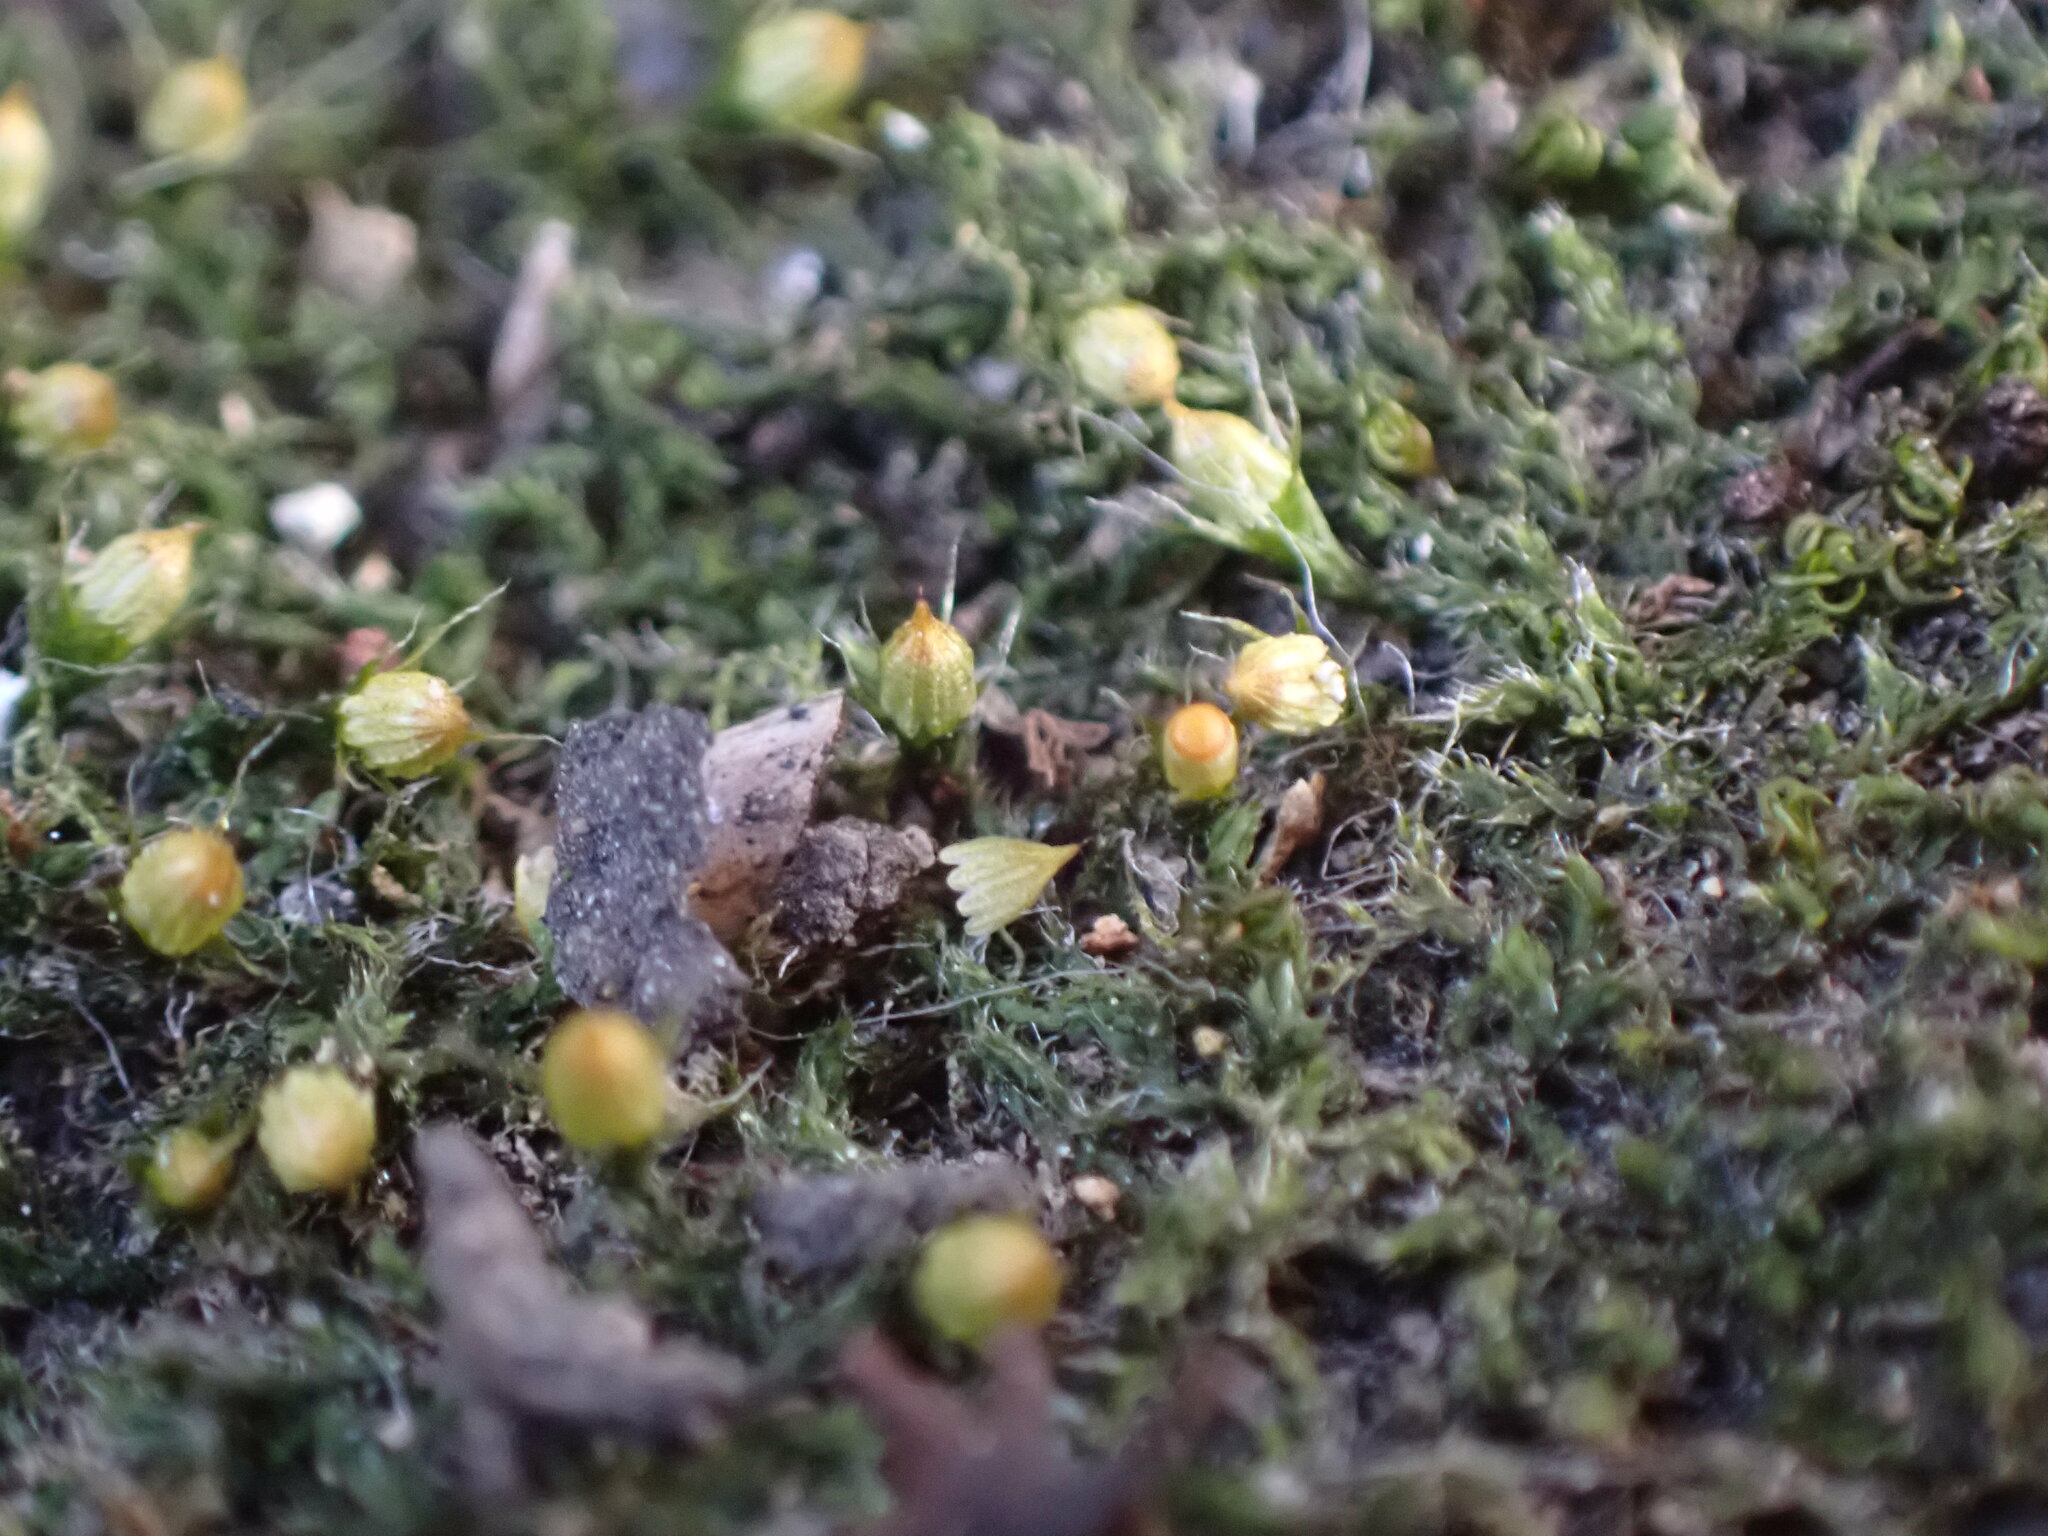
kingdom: Plantae
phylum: Bryophyta
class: Bryopsida
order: Dicranales
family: Erpodiaceae
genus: Venturiella
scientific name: Venturiella sinensis
